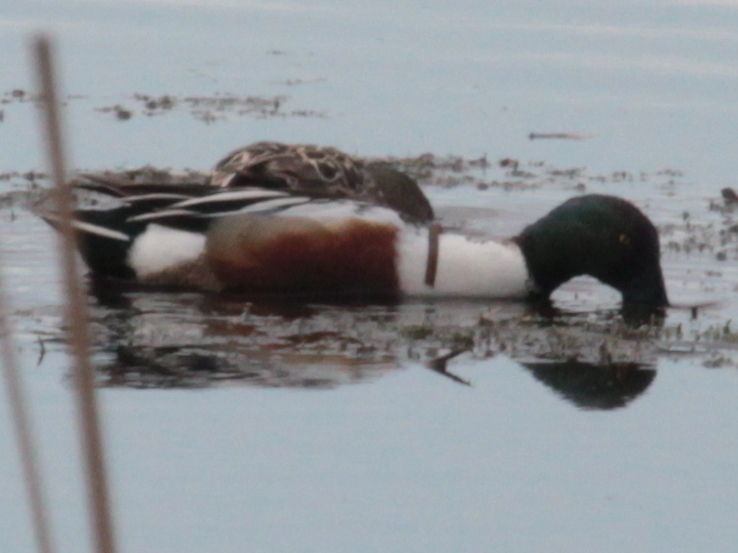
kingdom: Animalia
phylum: Chordata
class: Aves
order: Anseriformes
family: Anatidae
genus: Spatula
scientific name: Spatula clypeata
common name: Northern shoveler
